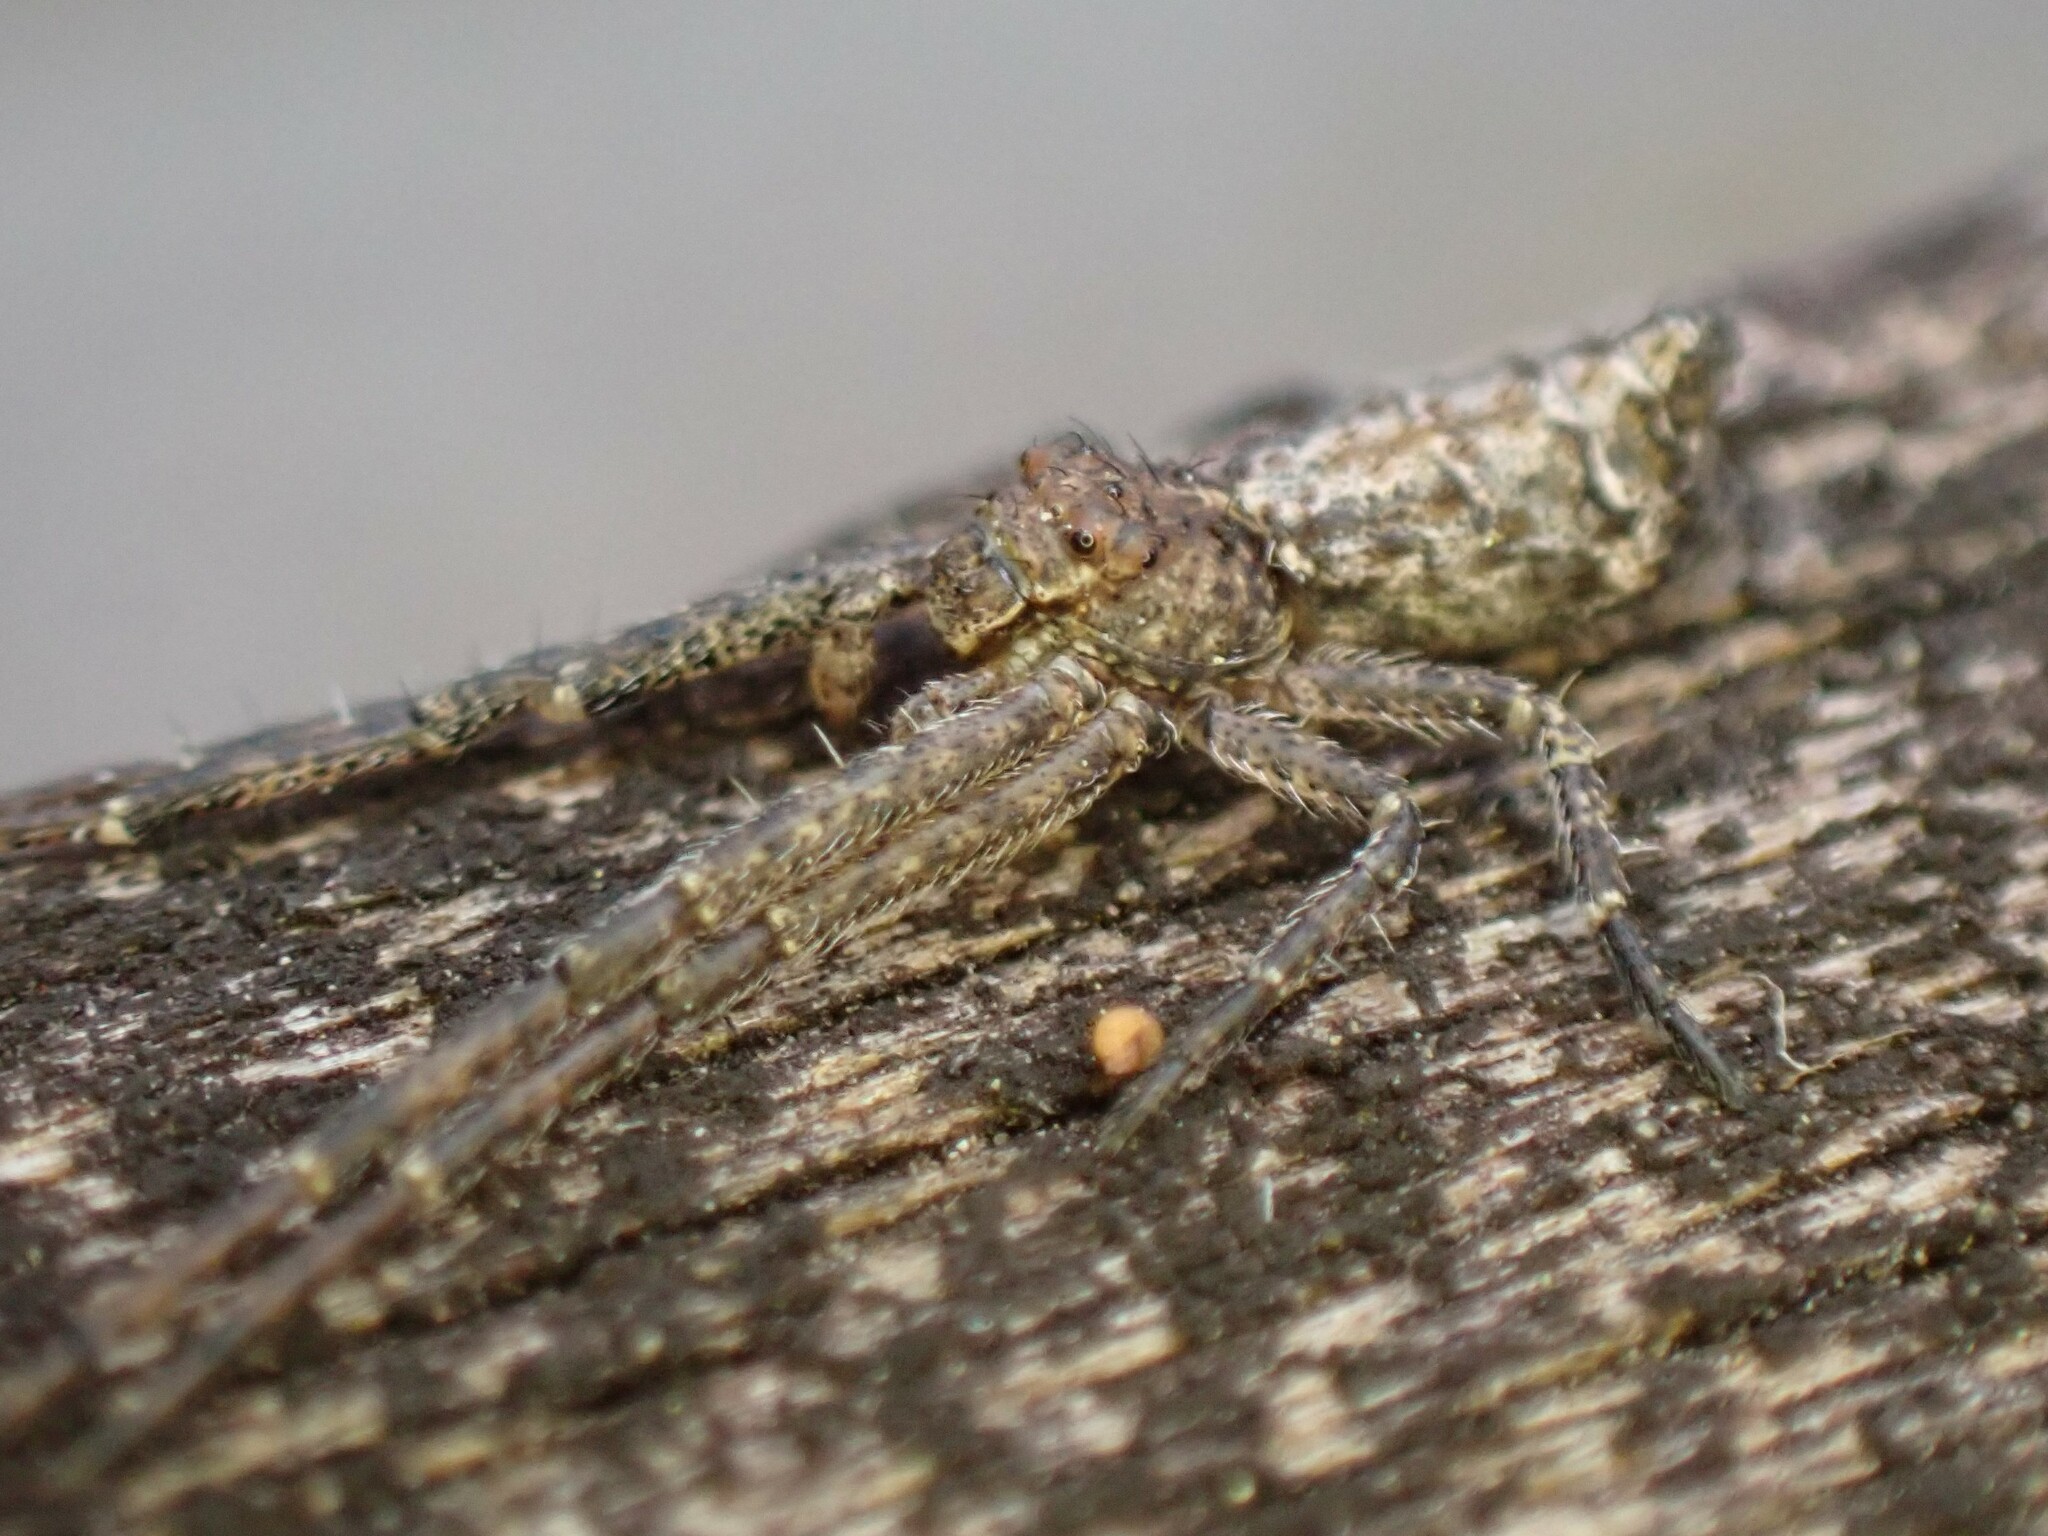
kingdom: Animalia
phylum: Arthropoda
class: Arachnida
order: Araneae
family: Thomisidae
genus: Tmarus
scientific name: Tmarus angulatus
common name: Tuberculated crab spider
